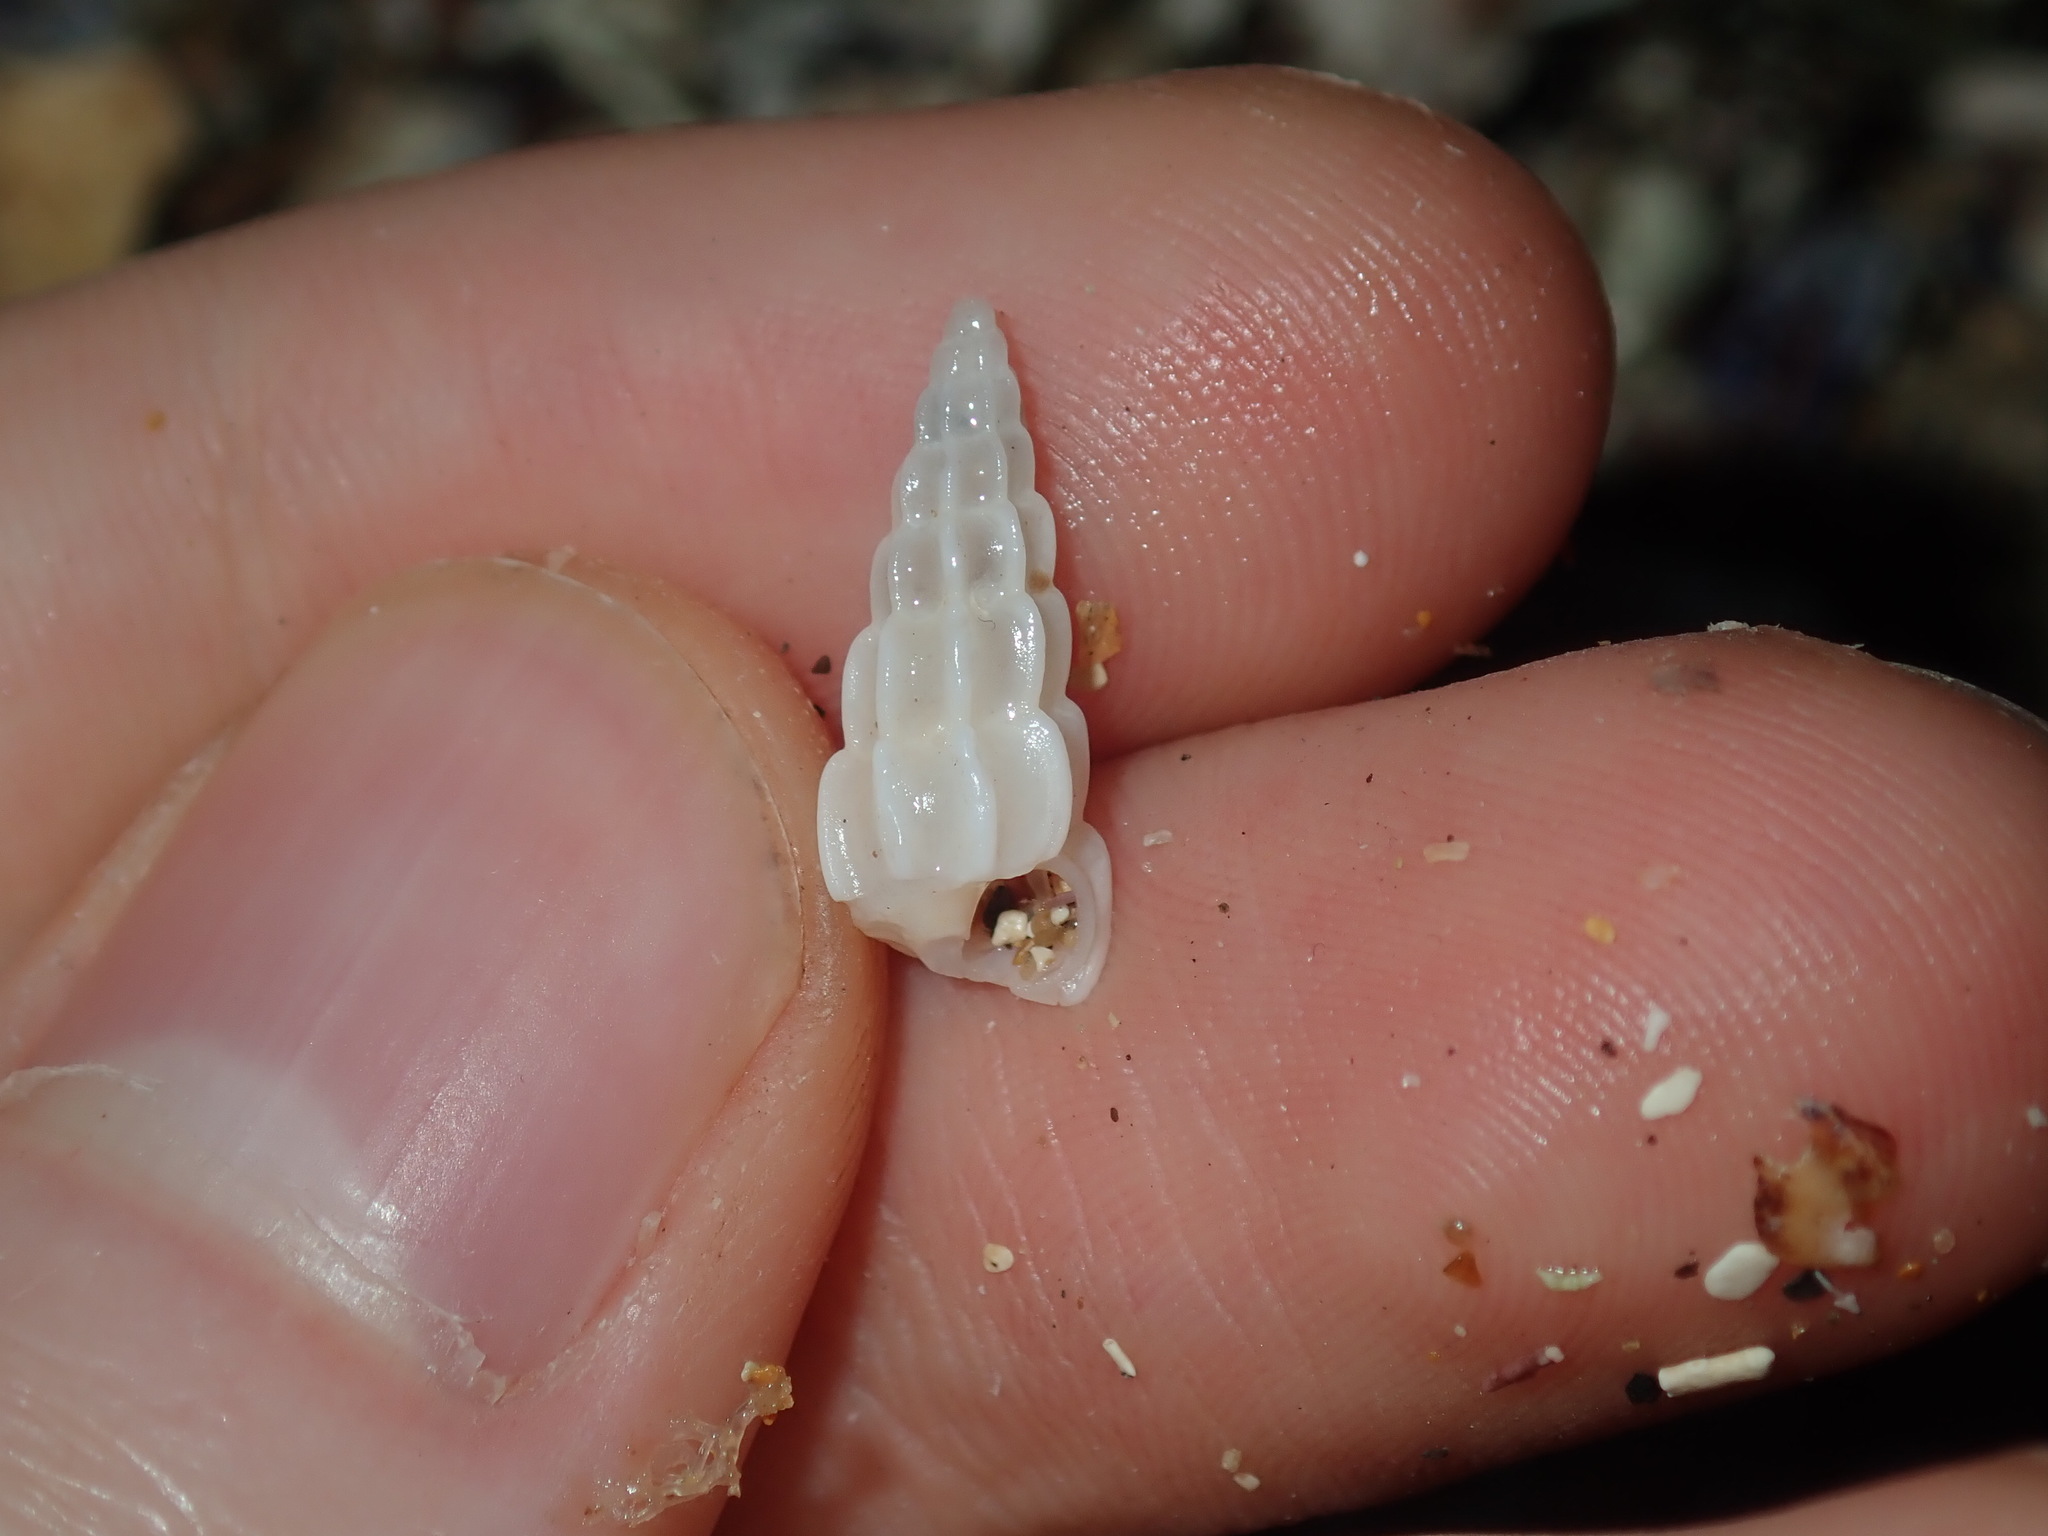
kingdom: Animalia
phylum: Mollusca
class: Gastropoda
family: Epitoniidae
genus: Opalia
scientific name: Opalia australis
